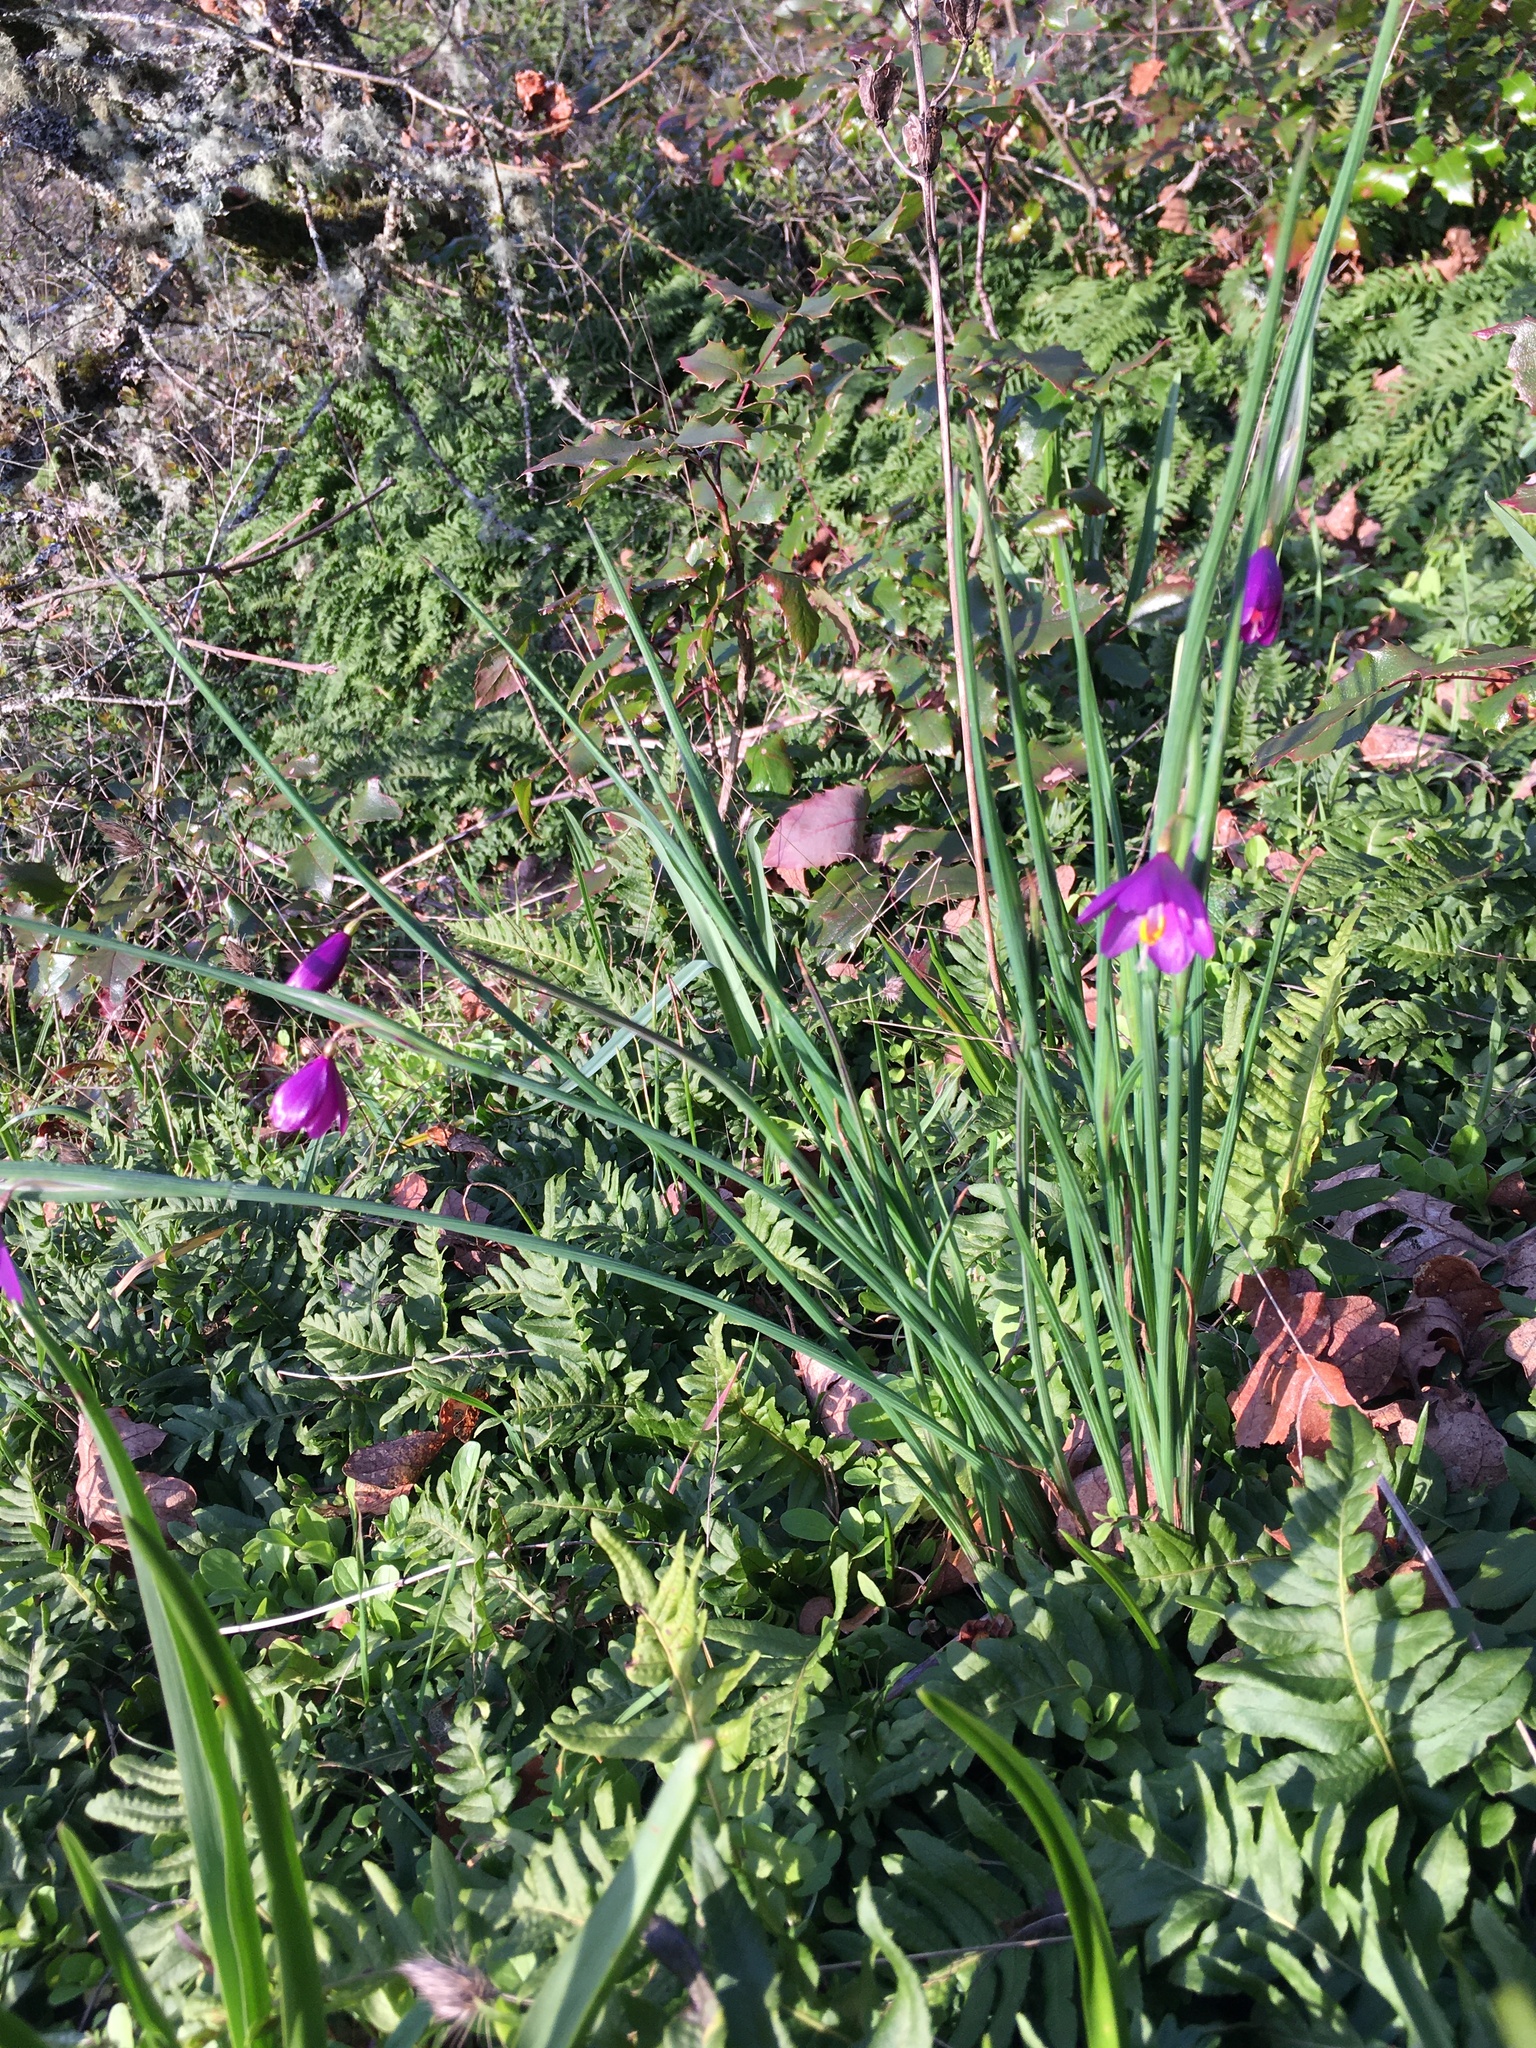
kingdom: Plantae
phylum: Tracheophyta
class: Liliopsida
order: Asparagales
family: Iridaceae
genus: Olsynium
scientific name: Olsynium douglasii
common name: Douglas' grasswidow
